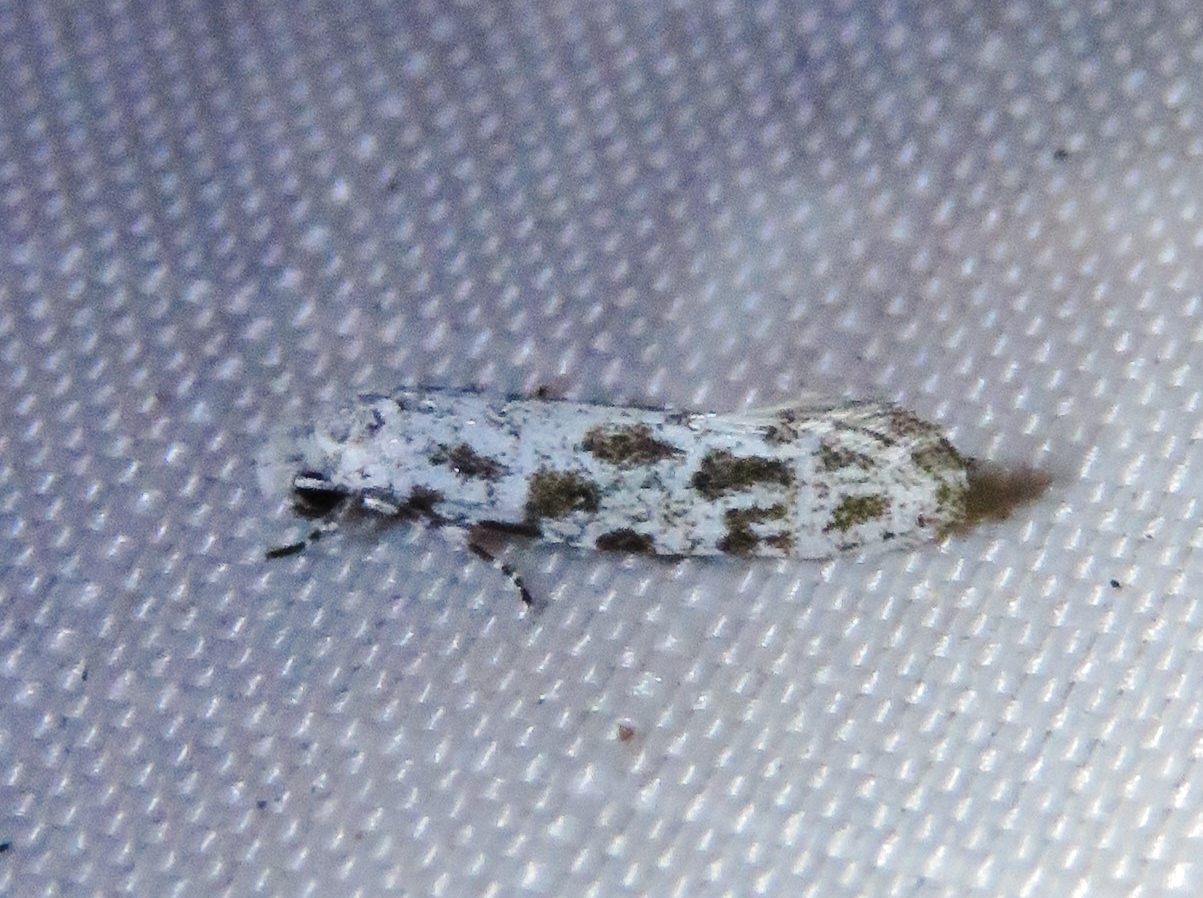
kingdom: Animalia
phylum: Arthropoda
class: Insecta
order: Lepidoptera
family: Meessiidae
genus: Diachorisia
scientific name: Diachorisia velatella
